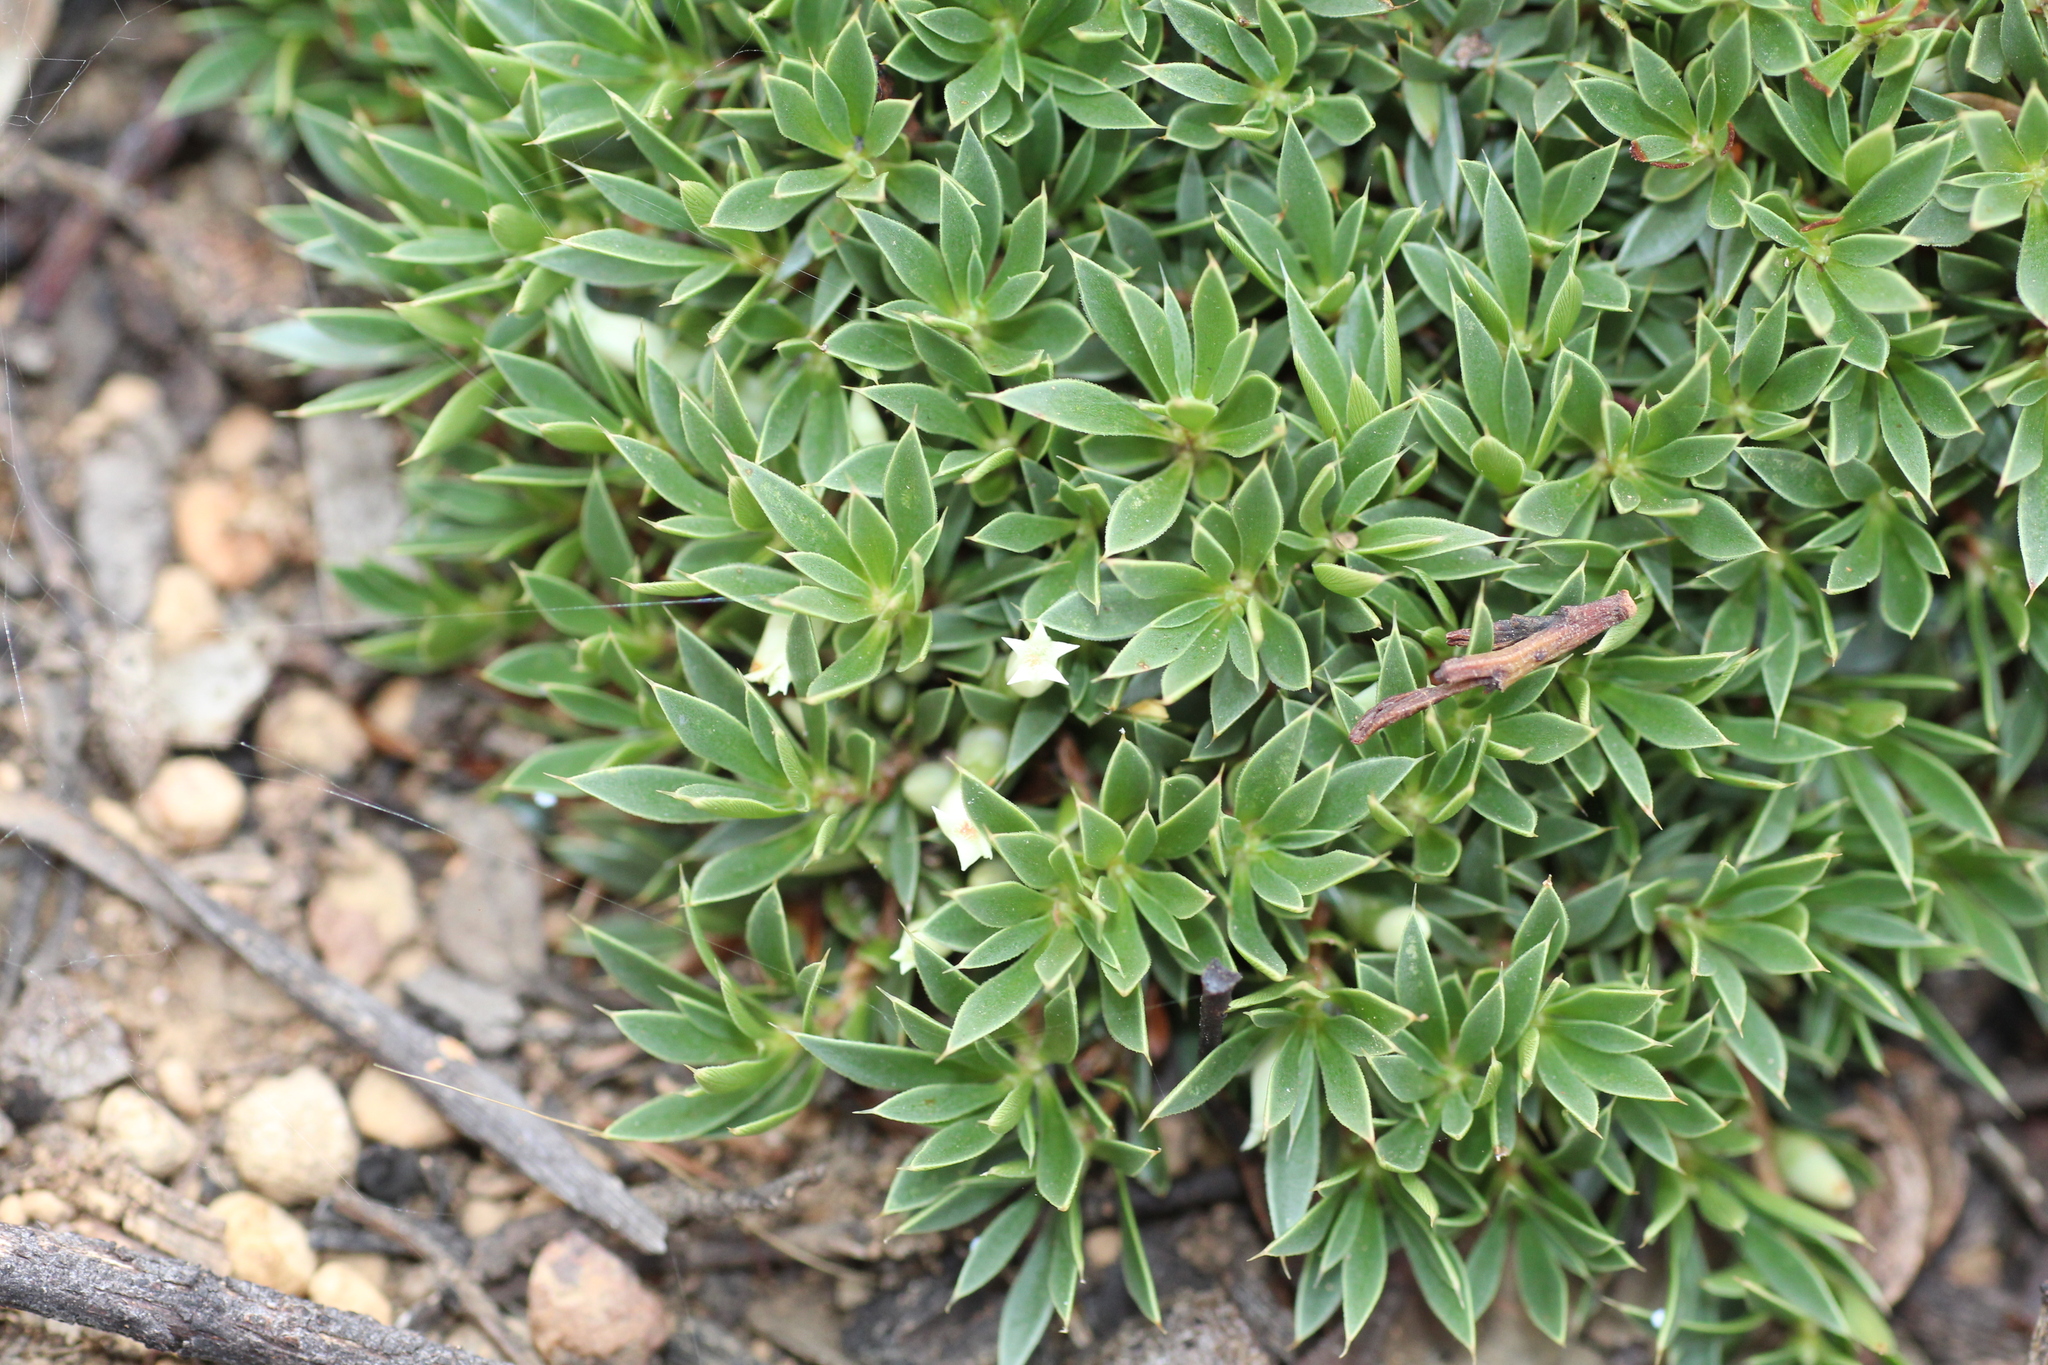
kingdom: Plantae
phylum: Tracheophyta
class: Magnoliopsida
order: Ericales
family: Ericaceae
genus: Styphelia
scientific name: Styphelia pallida
